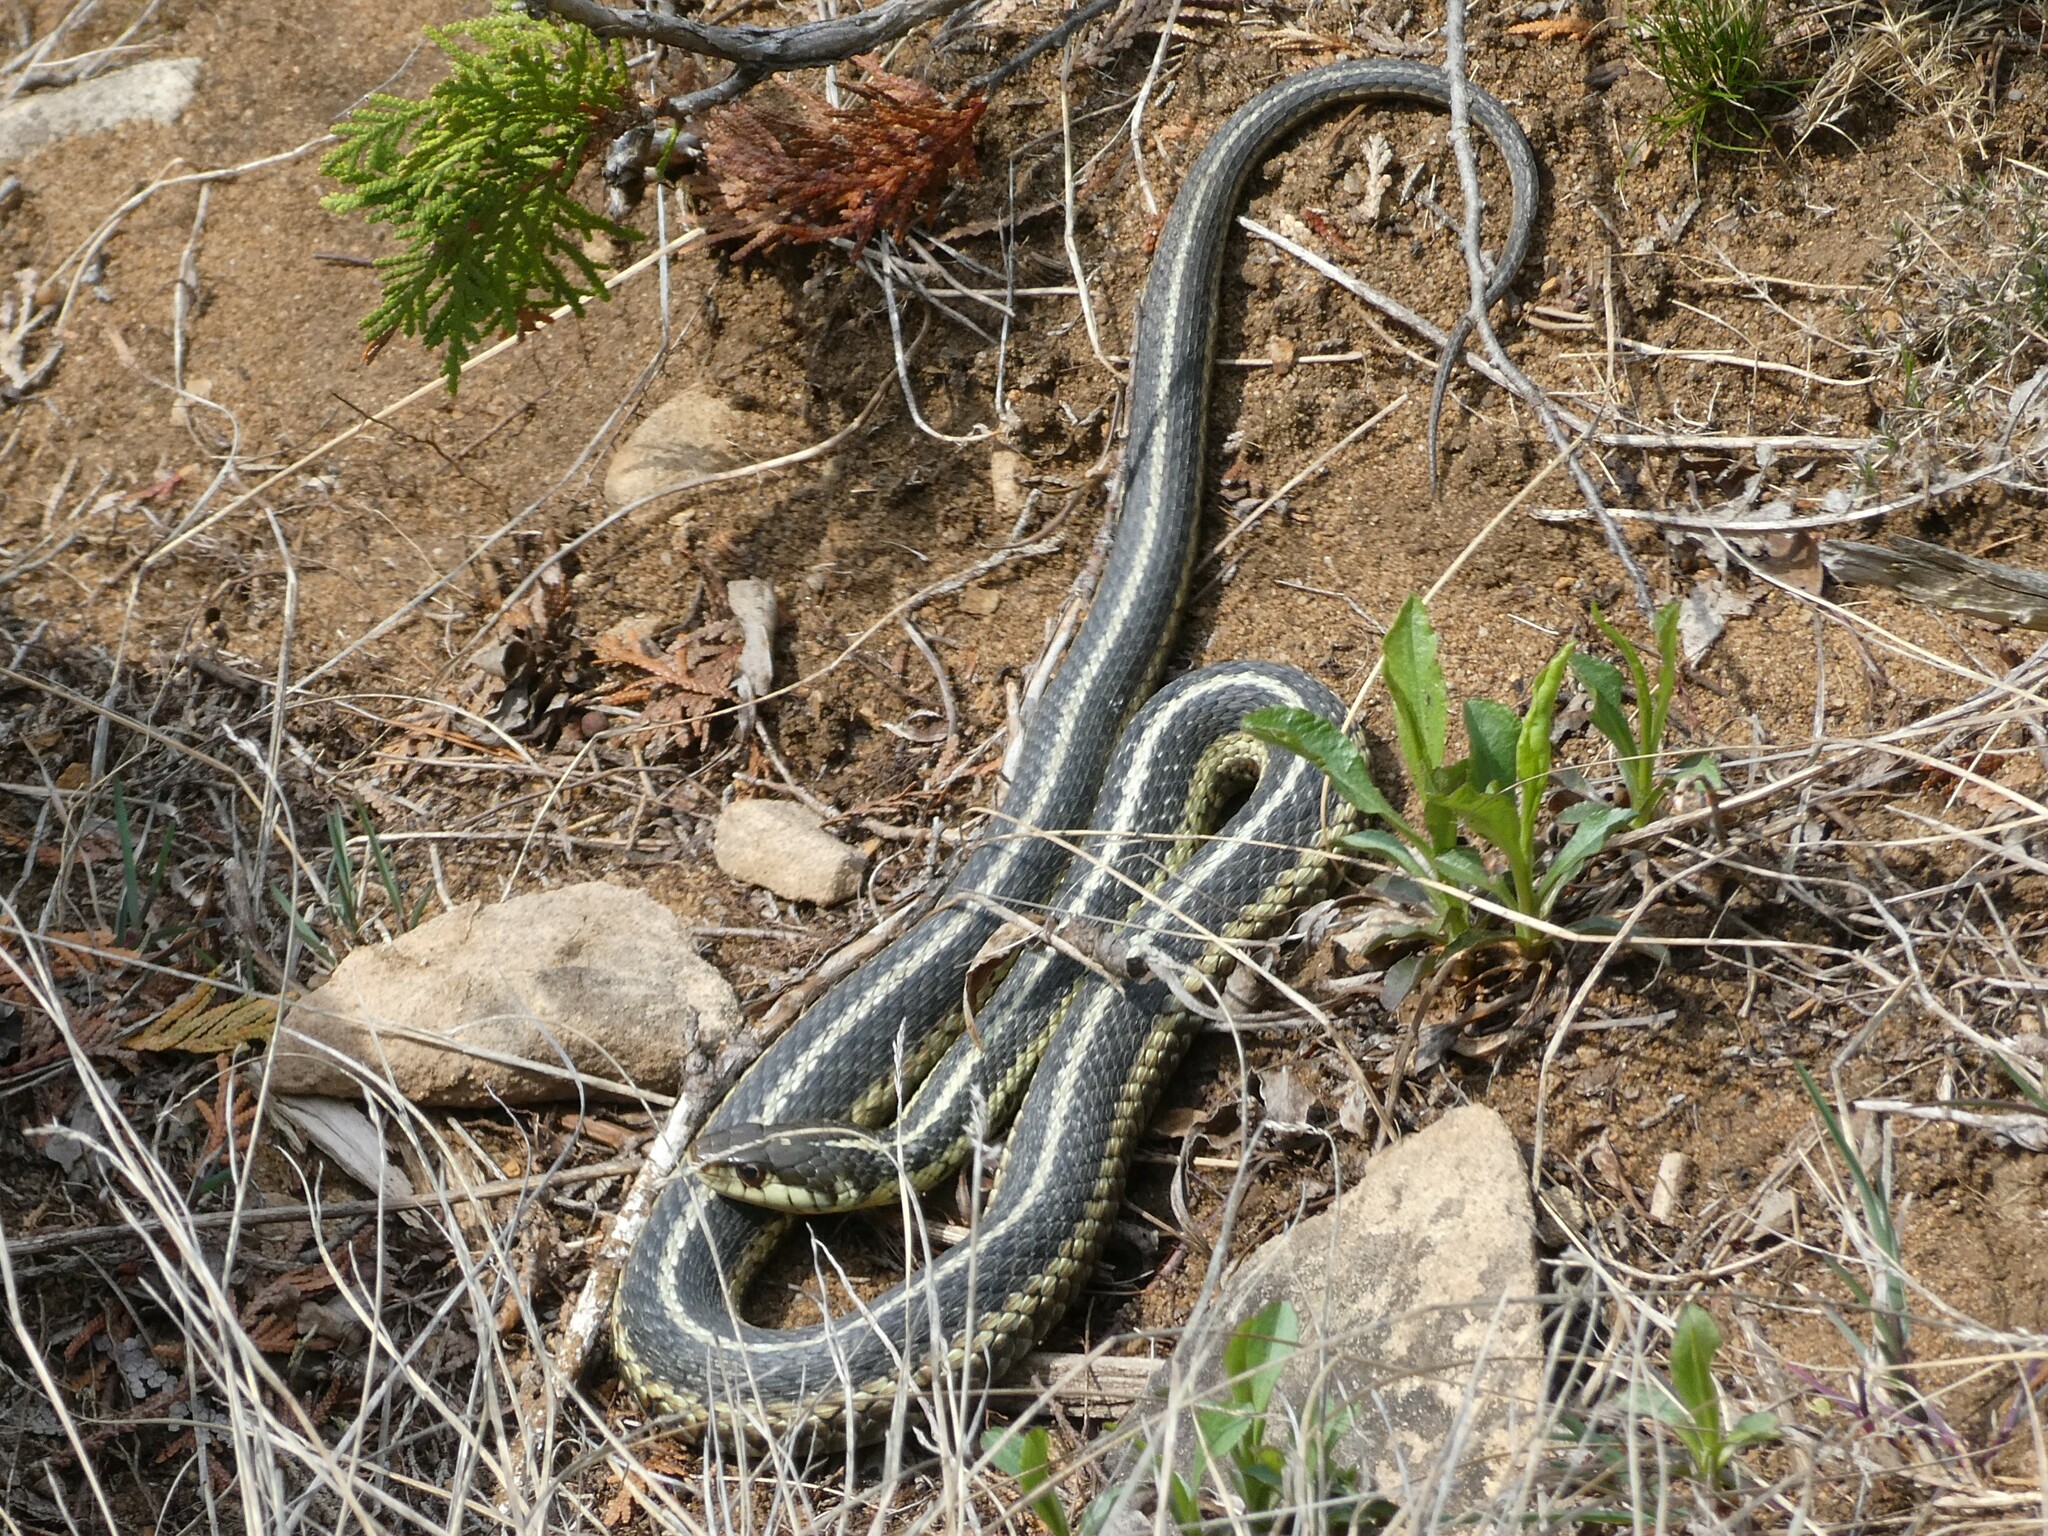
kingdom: Animalia
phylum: Chordata
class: Squamata
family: Colubridae
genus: Thamnophis
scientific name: Thamnophis sirtalis
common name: Common garter snake
